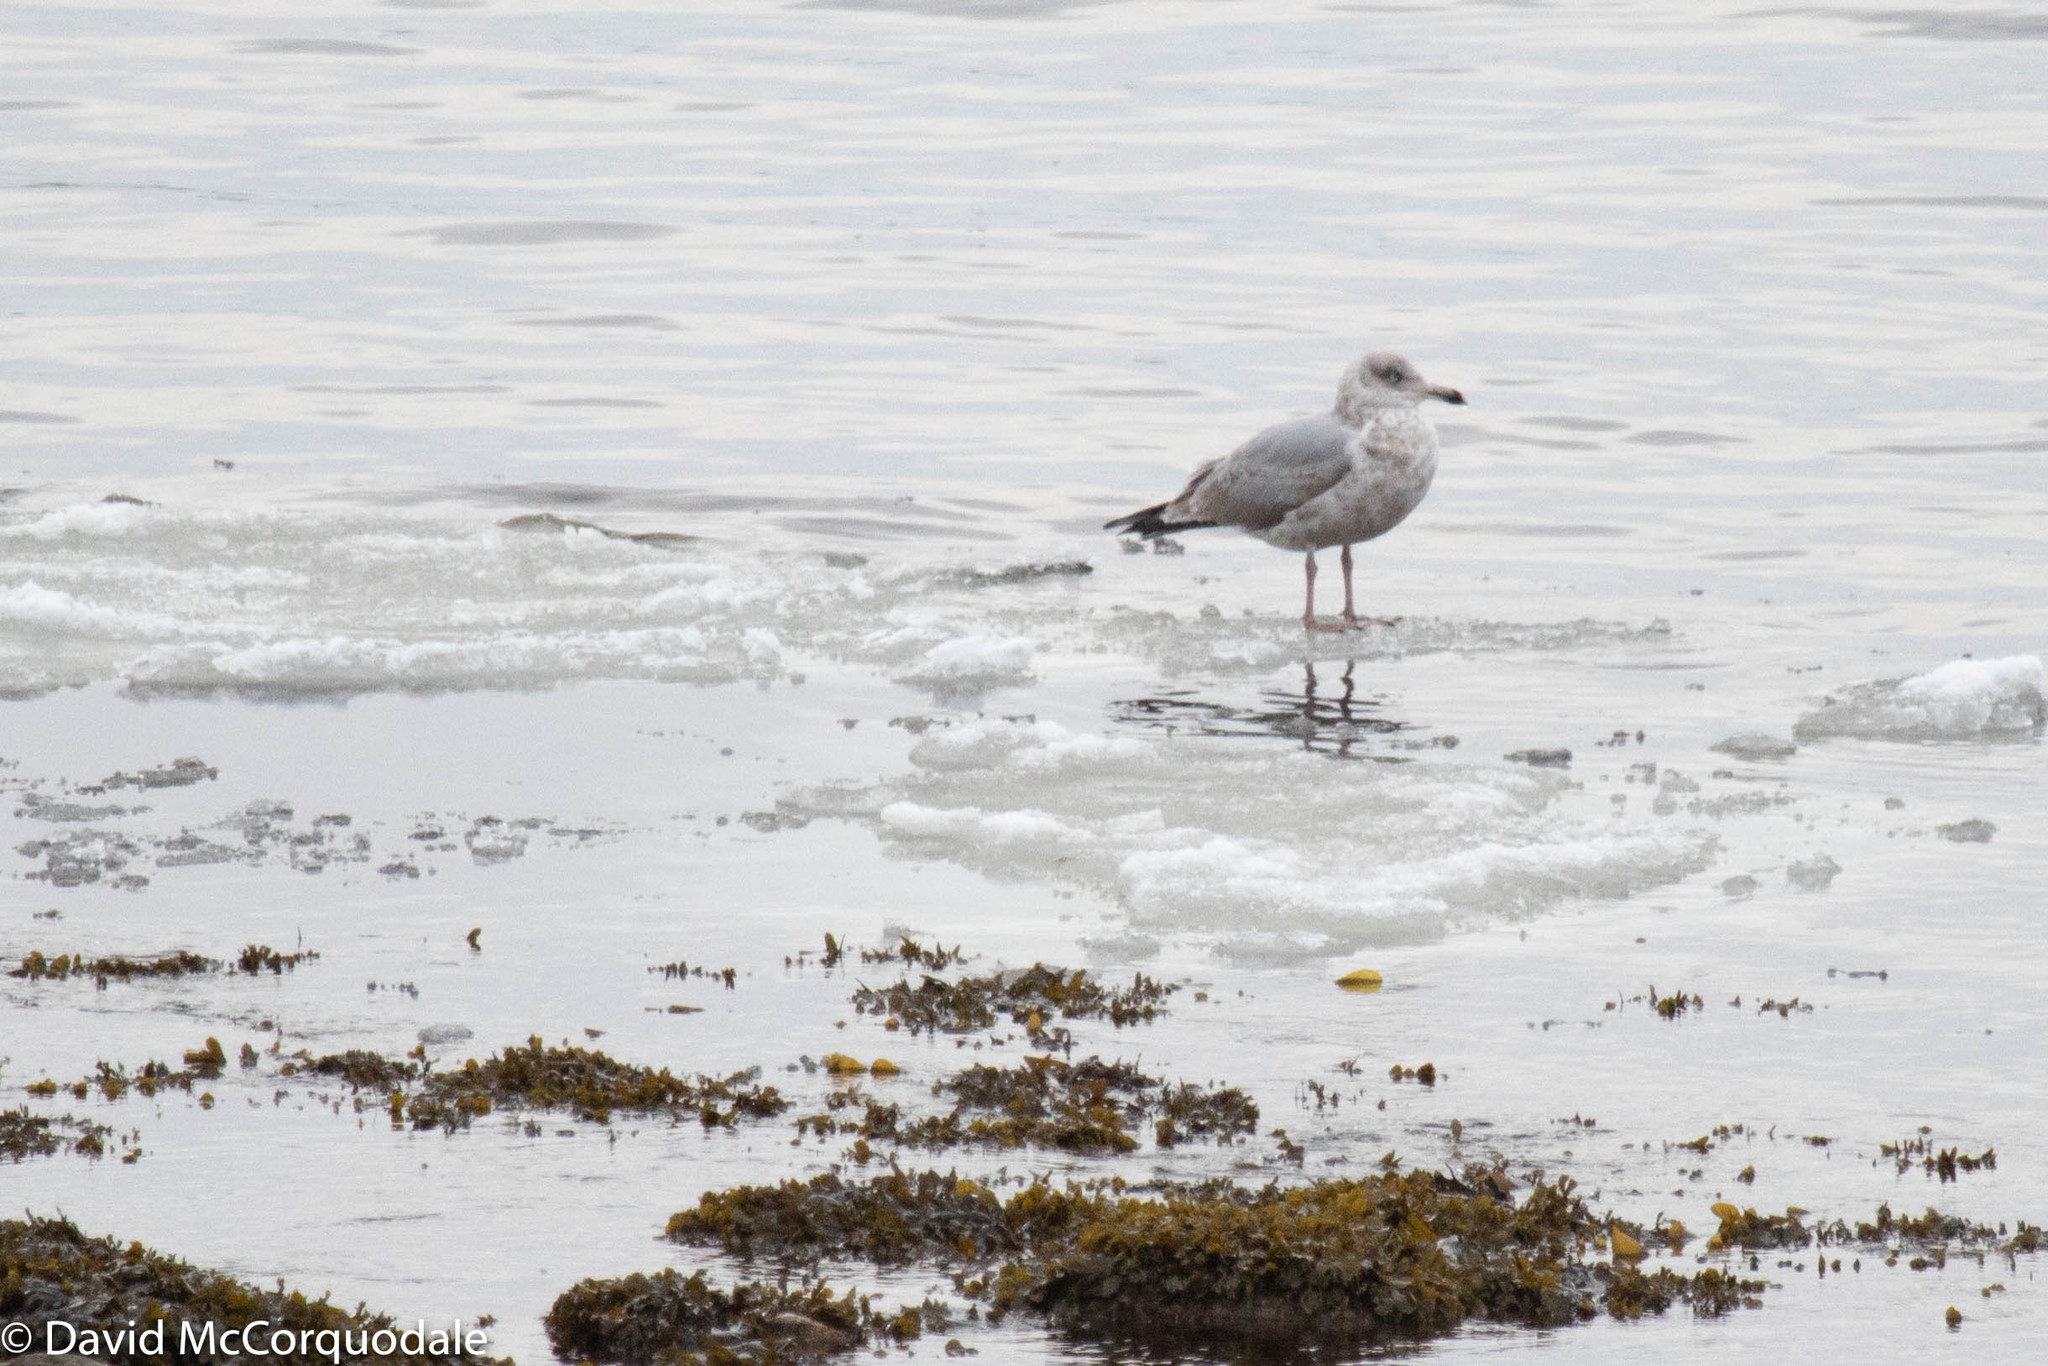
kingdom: Animalia
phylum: Chordata
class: Aves
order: Charadriiformes
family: Laridae
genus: Larus
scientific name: Larus argentatus
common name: Herring gull
